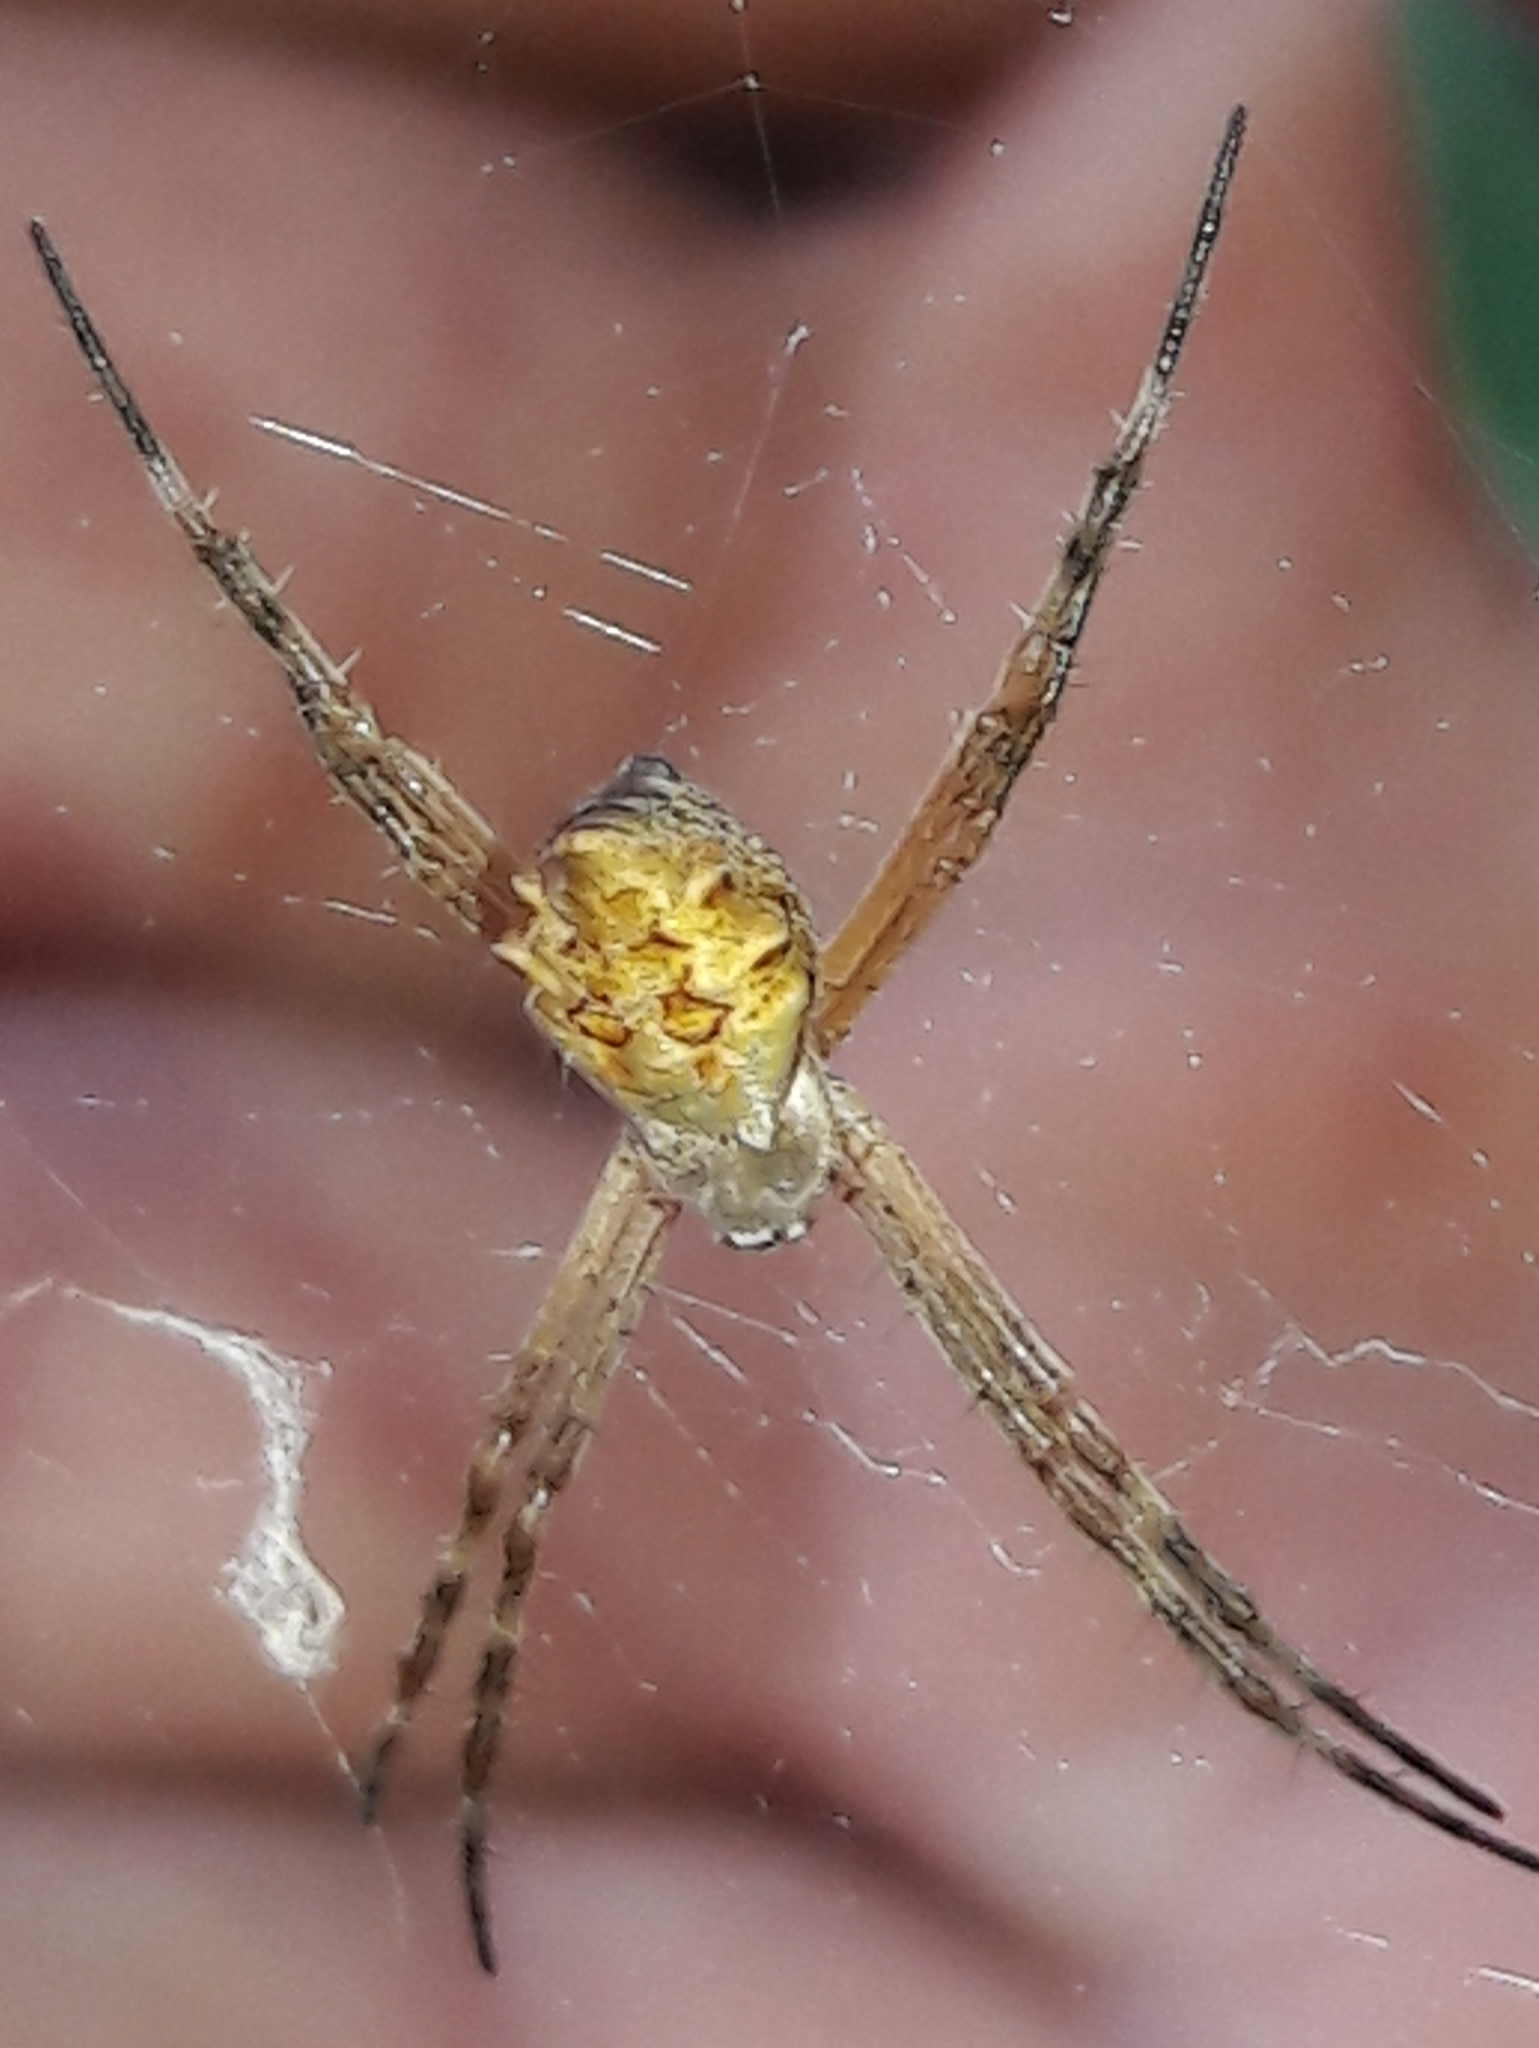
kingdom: Animalia
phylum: Arthropoda
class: Arachnida
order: Araneae
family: Araneidae
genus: Argiope
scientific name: Argiope argentata
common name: Orb weavers
